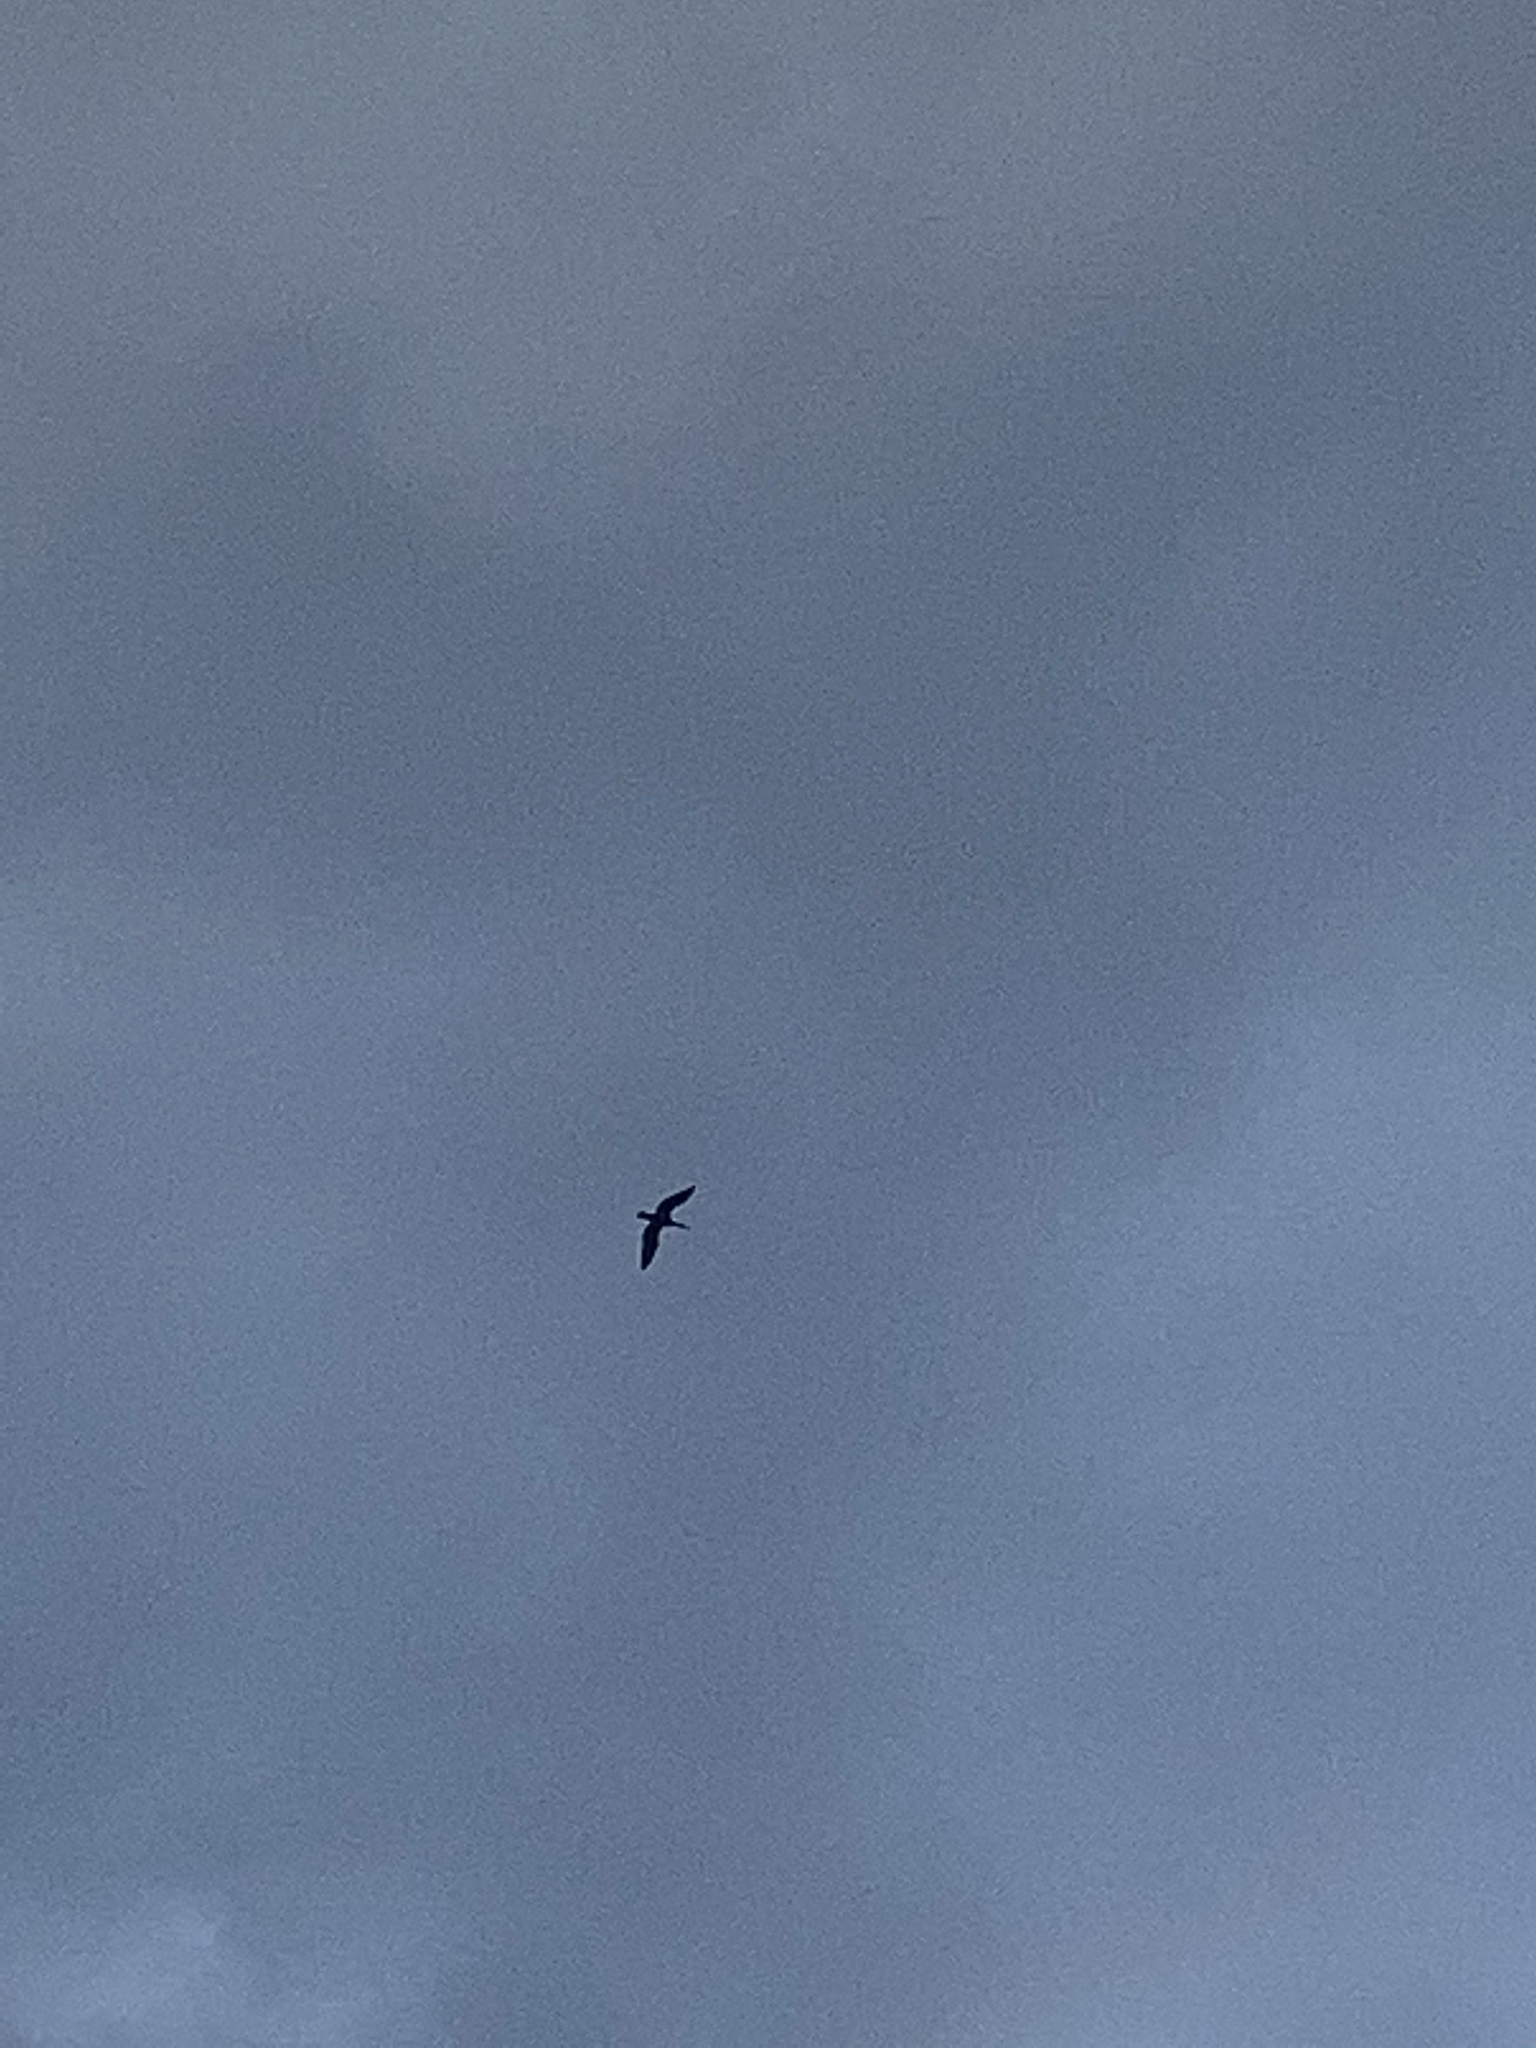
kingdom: Animalia
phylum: Chordata
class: Aves
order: Suliformes
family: Phalacrocoracidae
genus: Phalacrocorax
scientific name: Phalacrocorax carbo
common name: Great cormorant
